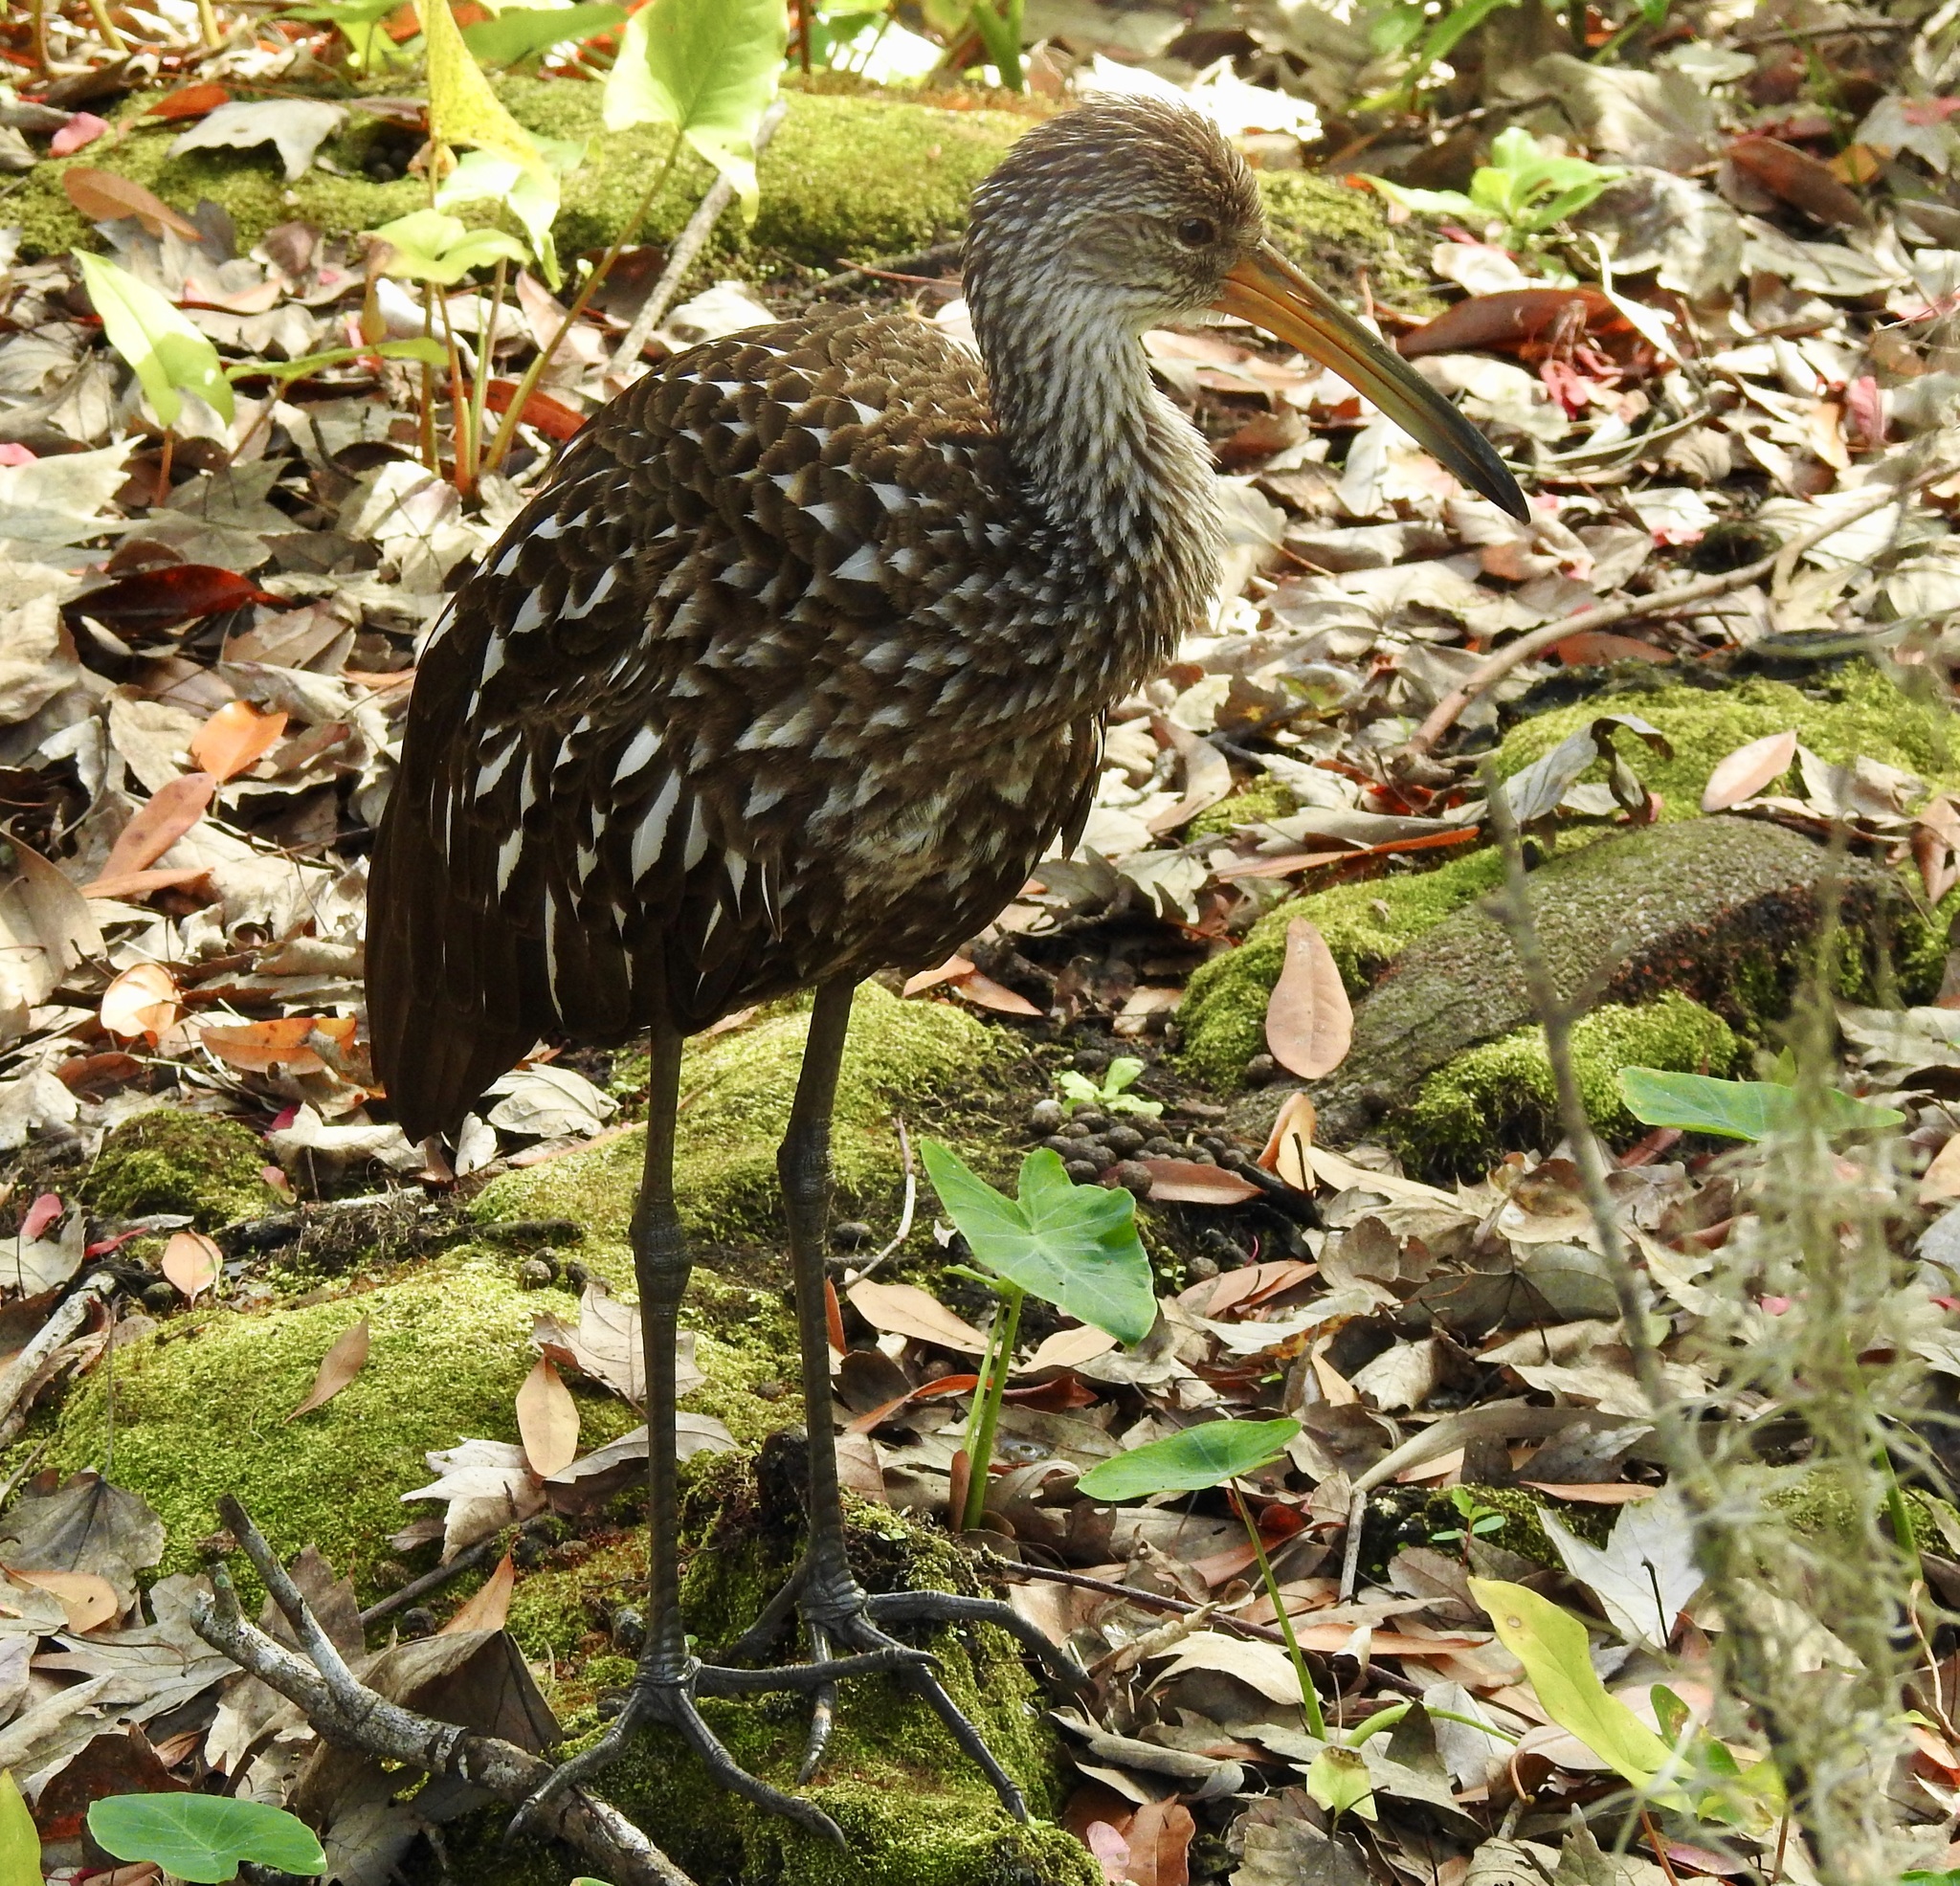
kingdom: Animalia
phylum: Chordata
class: Aves
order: Gruiformes
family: Aramidae
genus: Aramus
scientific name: Aramus guarauna
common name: Limpkin
